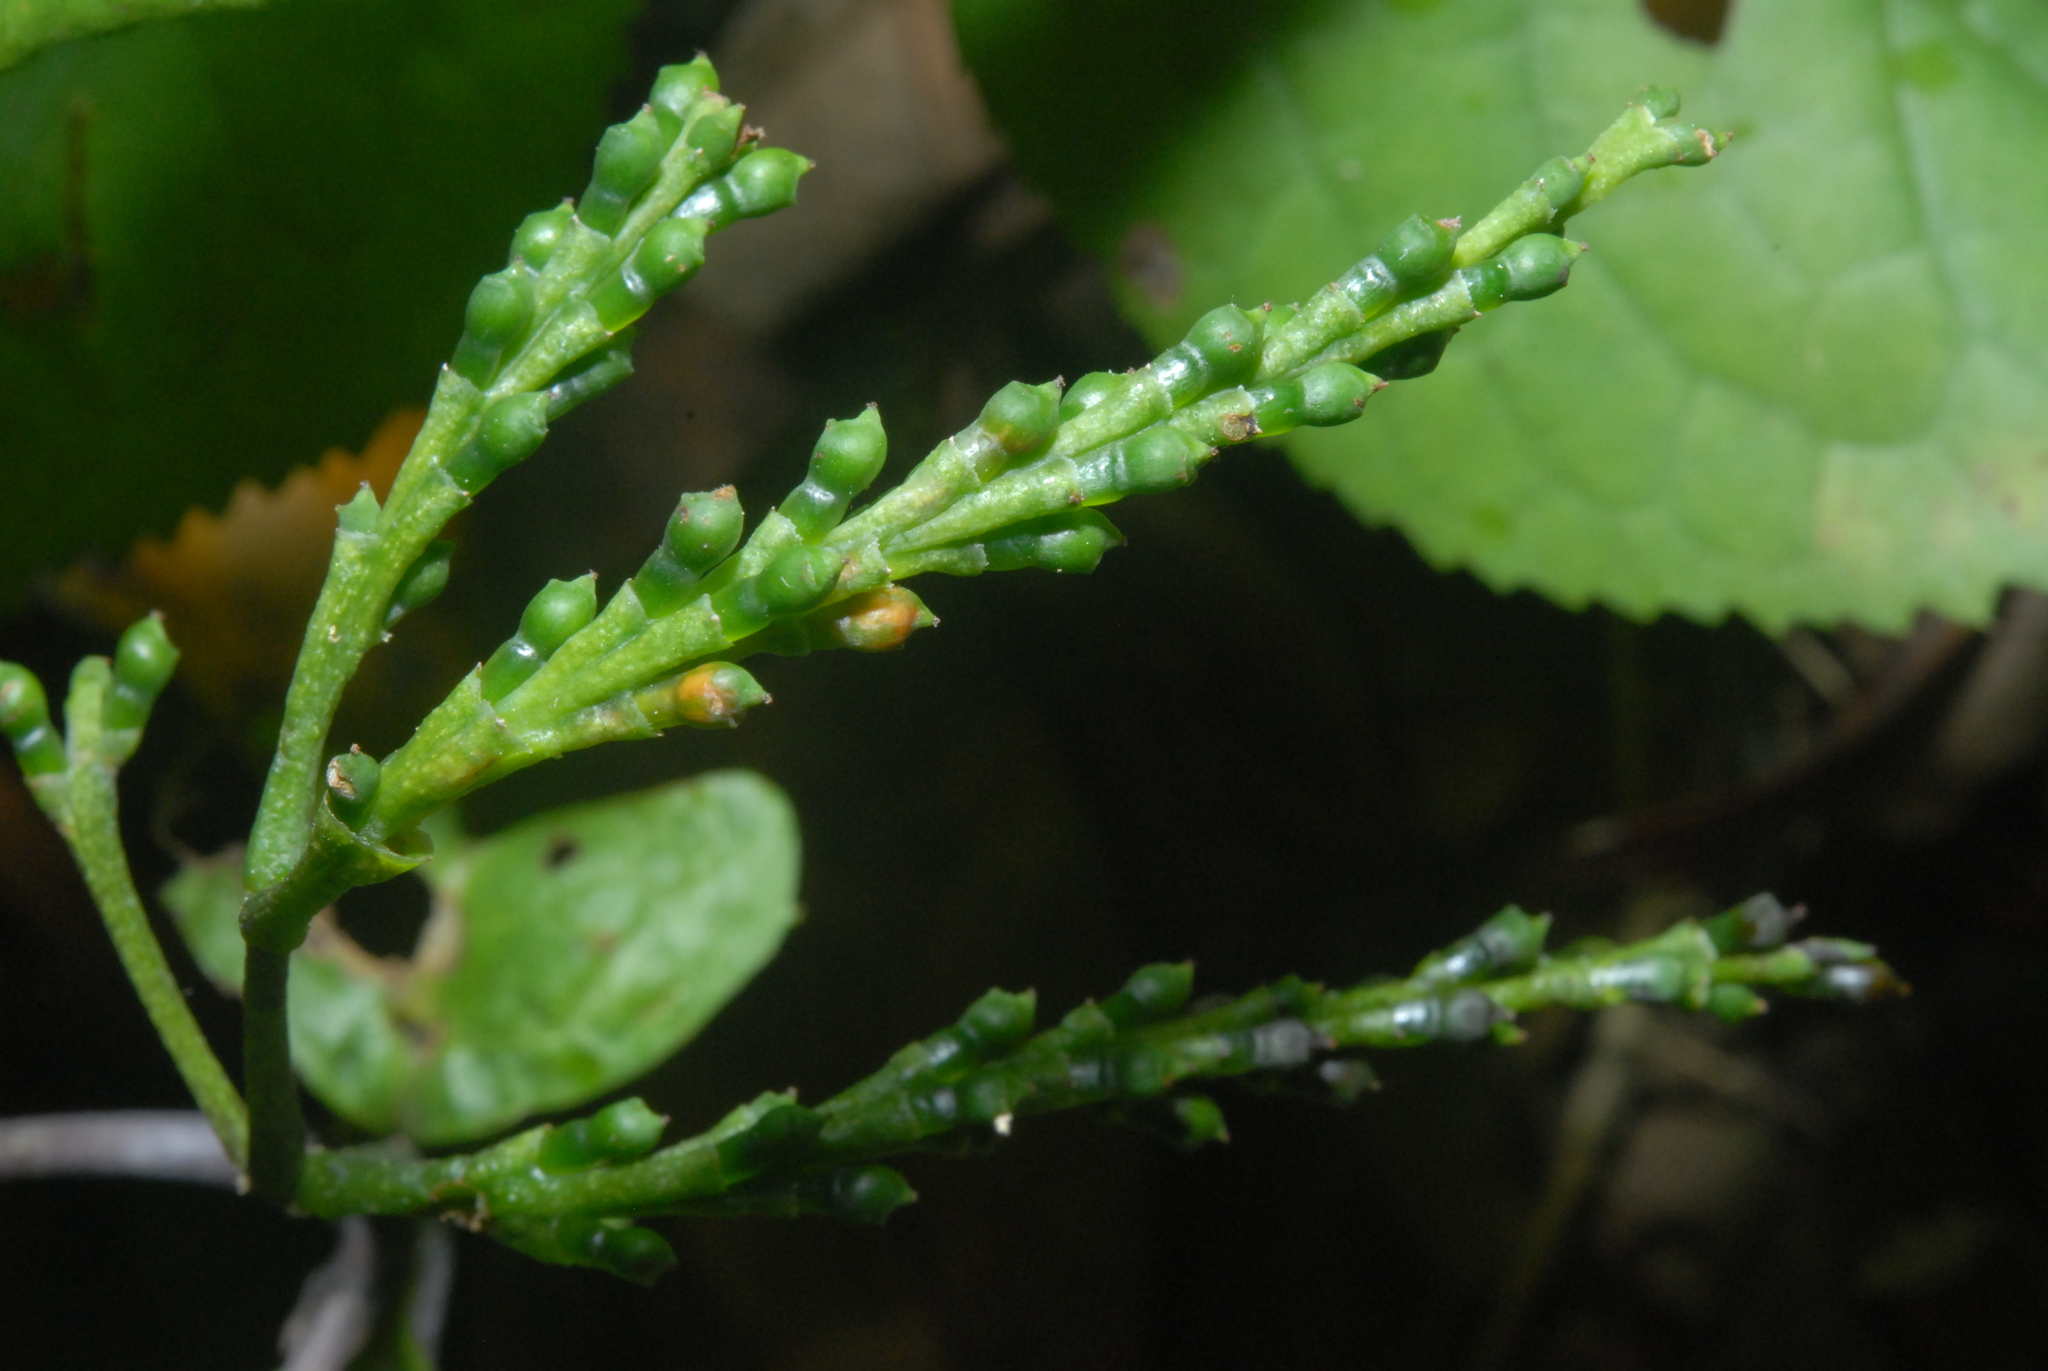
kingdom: Plantae
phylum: Tracheophyta
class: Magnoliopsida
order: Chloranthales
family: Chloranthaceae
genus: Chloranthus
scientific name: Chloranthus oldhamii
